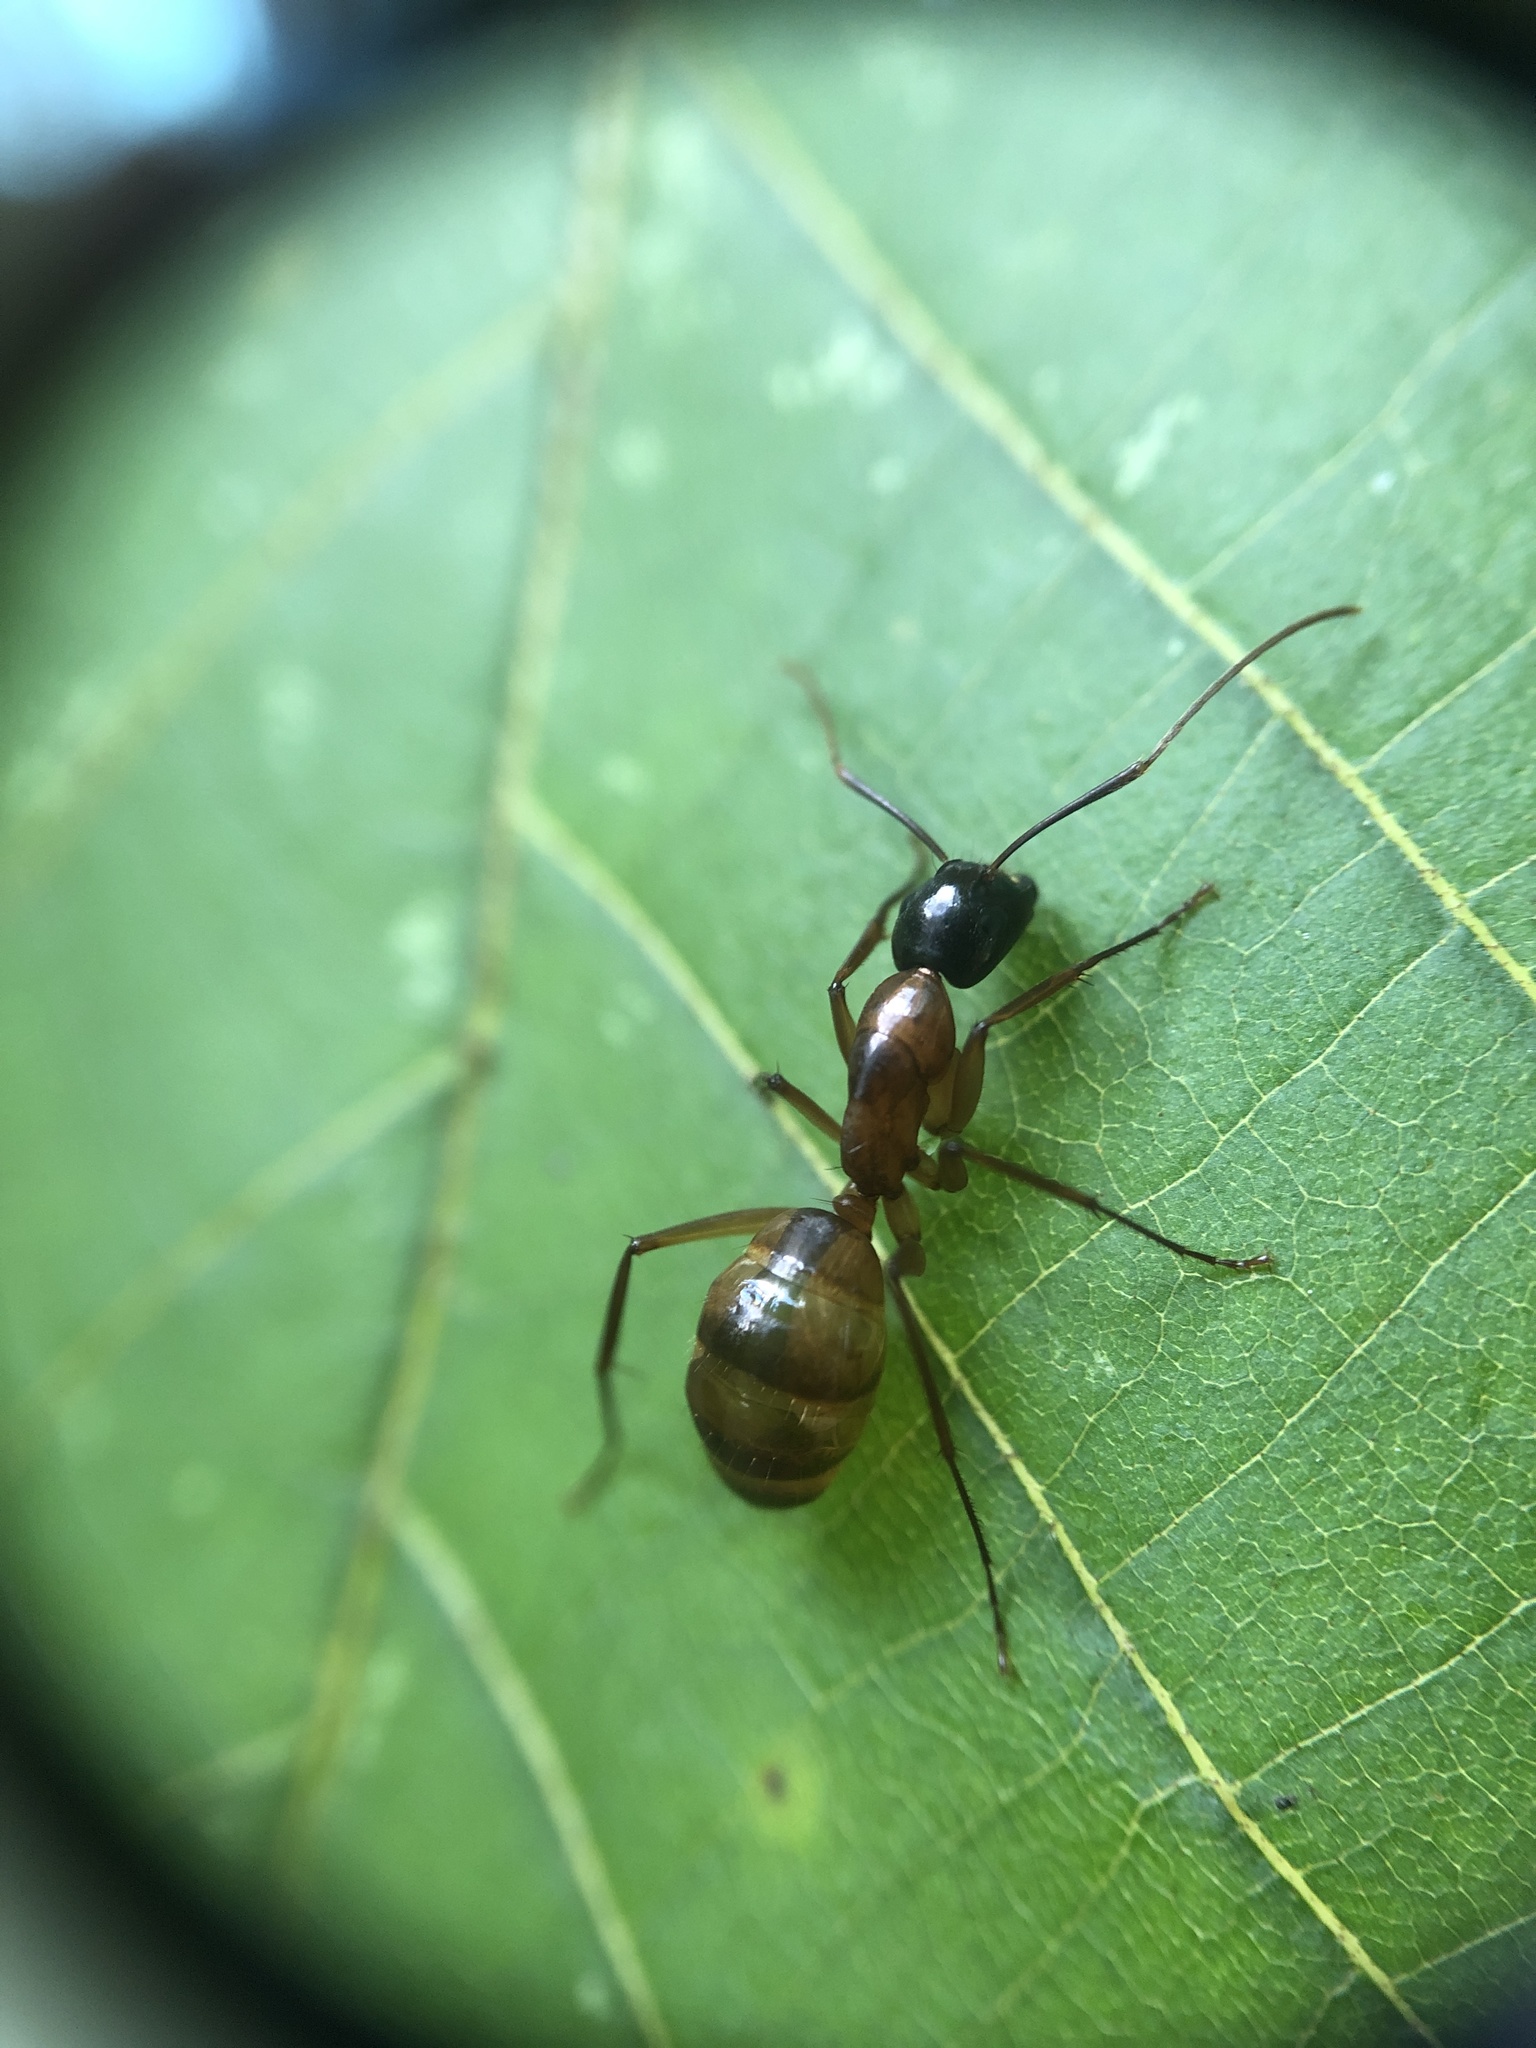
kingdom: Animalia
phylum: Arthropoda
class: Insecta
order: Hymenoptera
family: Formicidae
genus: Camponotus
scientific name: Camponotus americanus
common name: American carpenter ant
